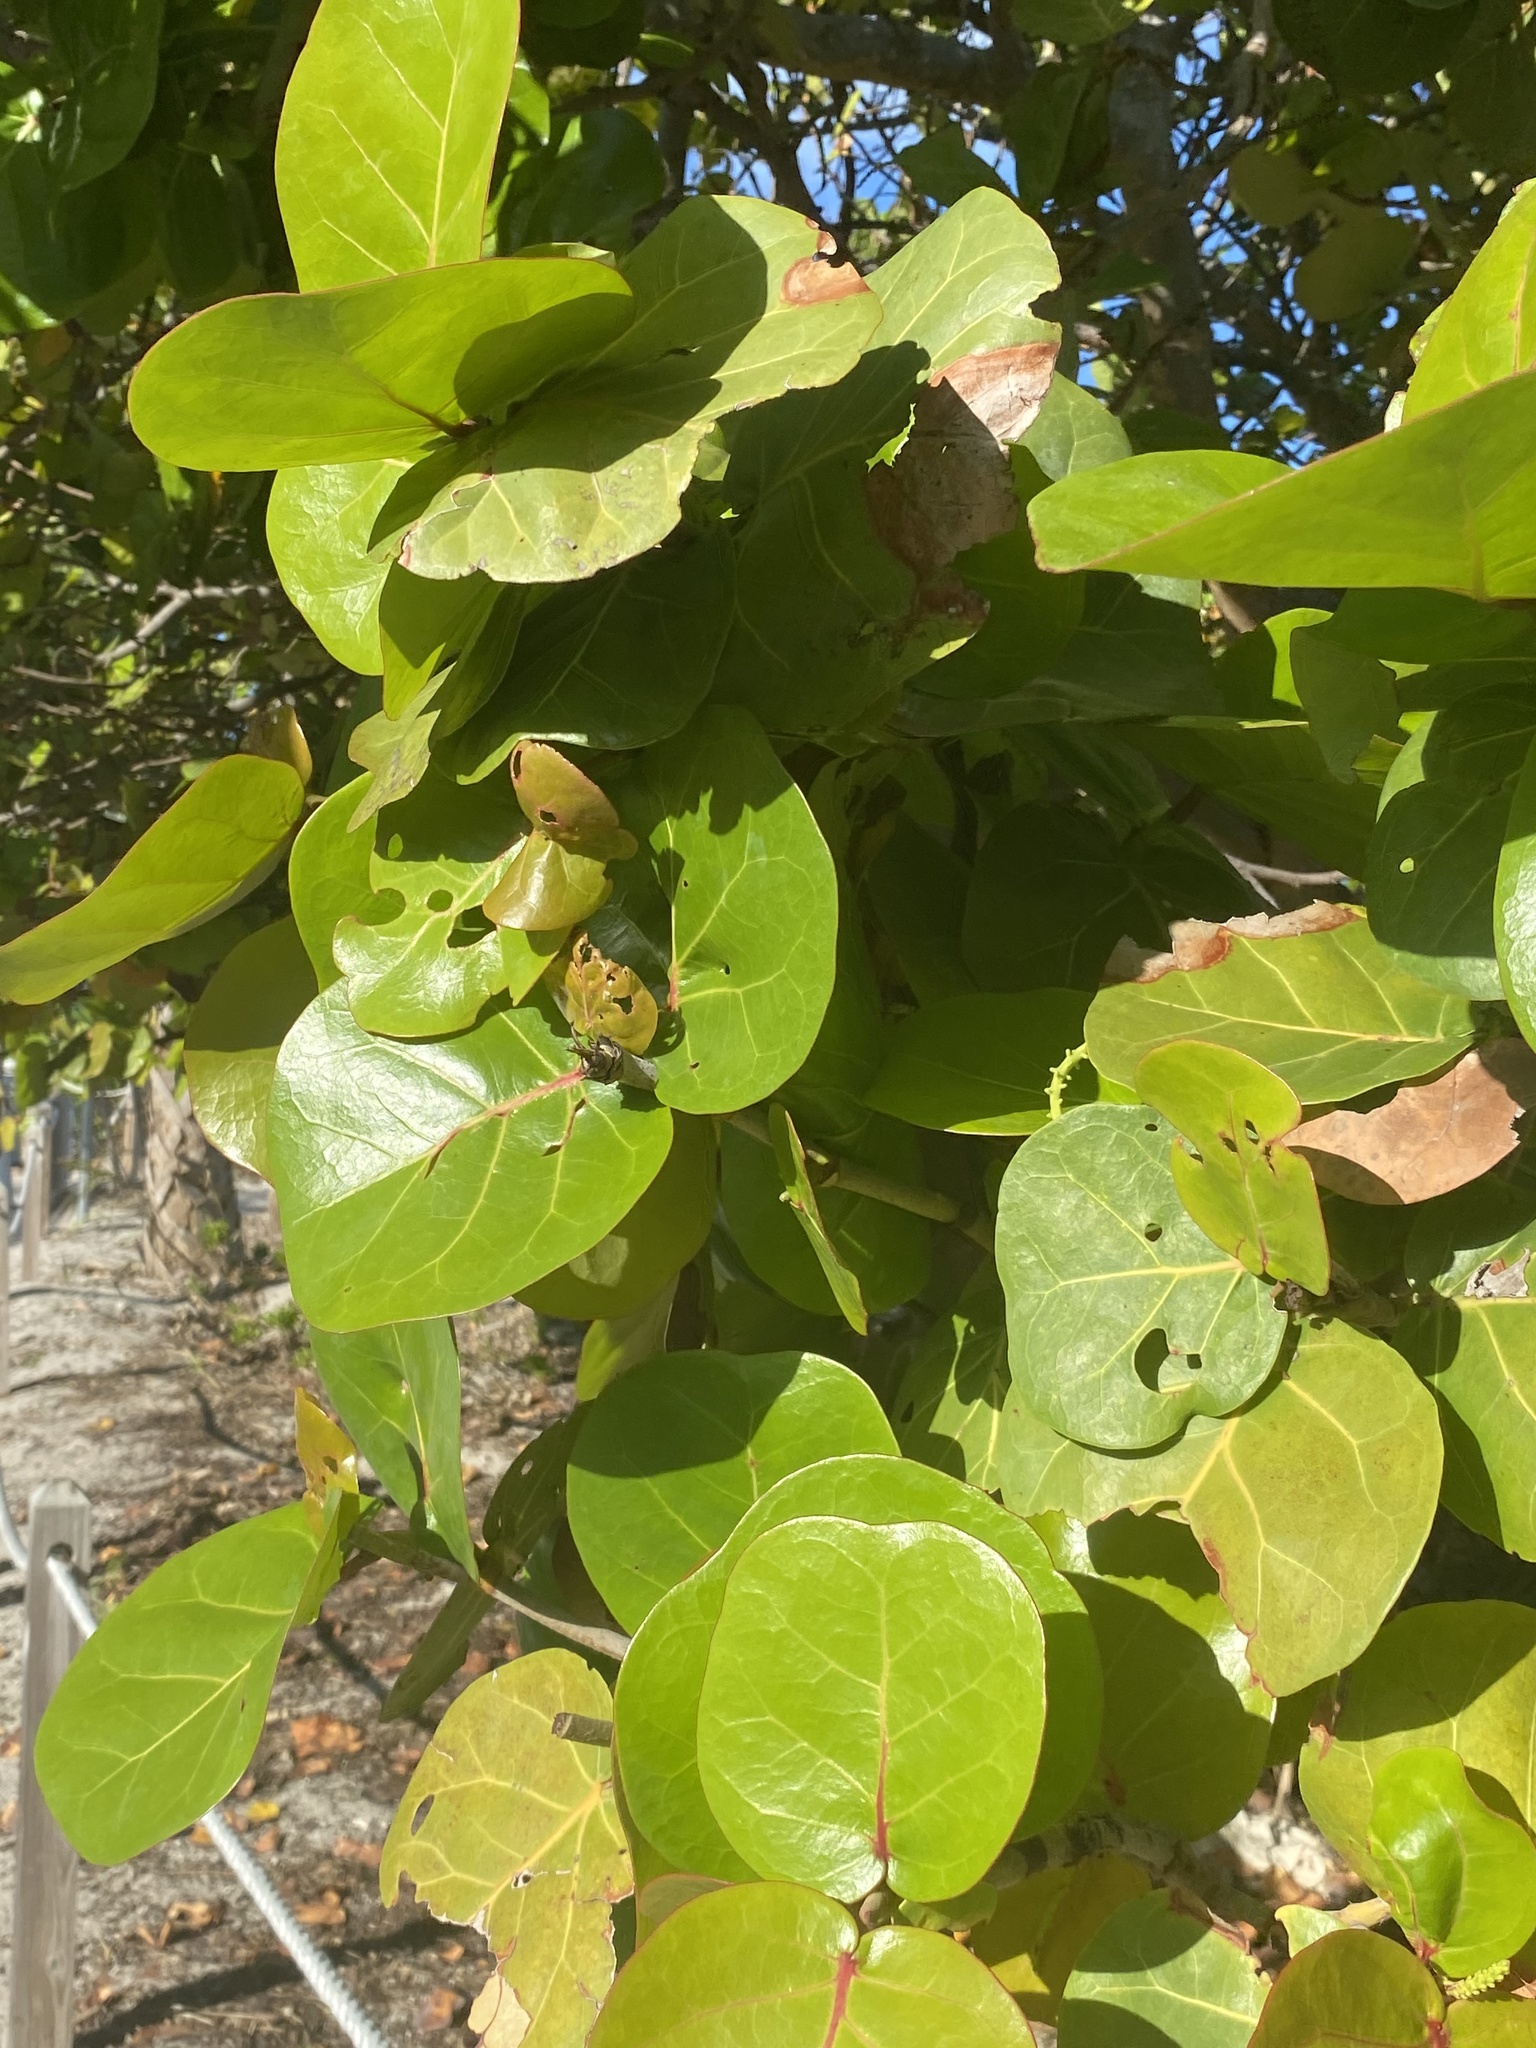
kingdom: Plantae
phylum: Tracheophyta
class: Magnoliopsida
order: Caryophyllales
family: Polygonaceae
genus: Coccoloba
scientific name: Coccoloba uvifera
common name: Seagrape
